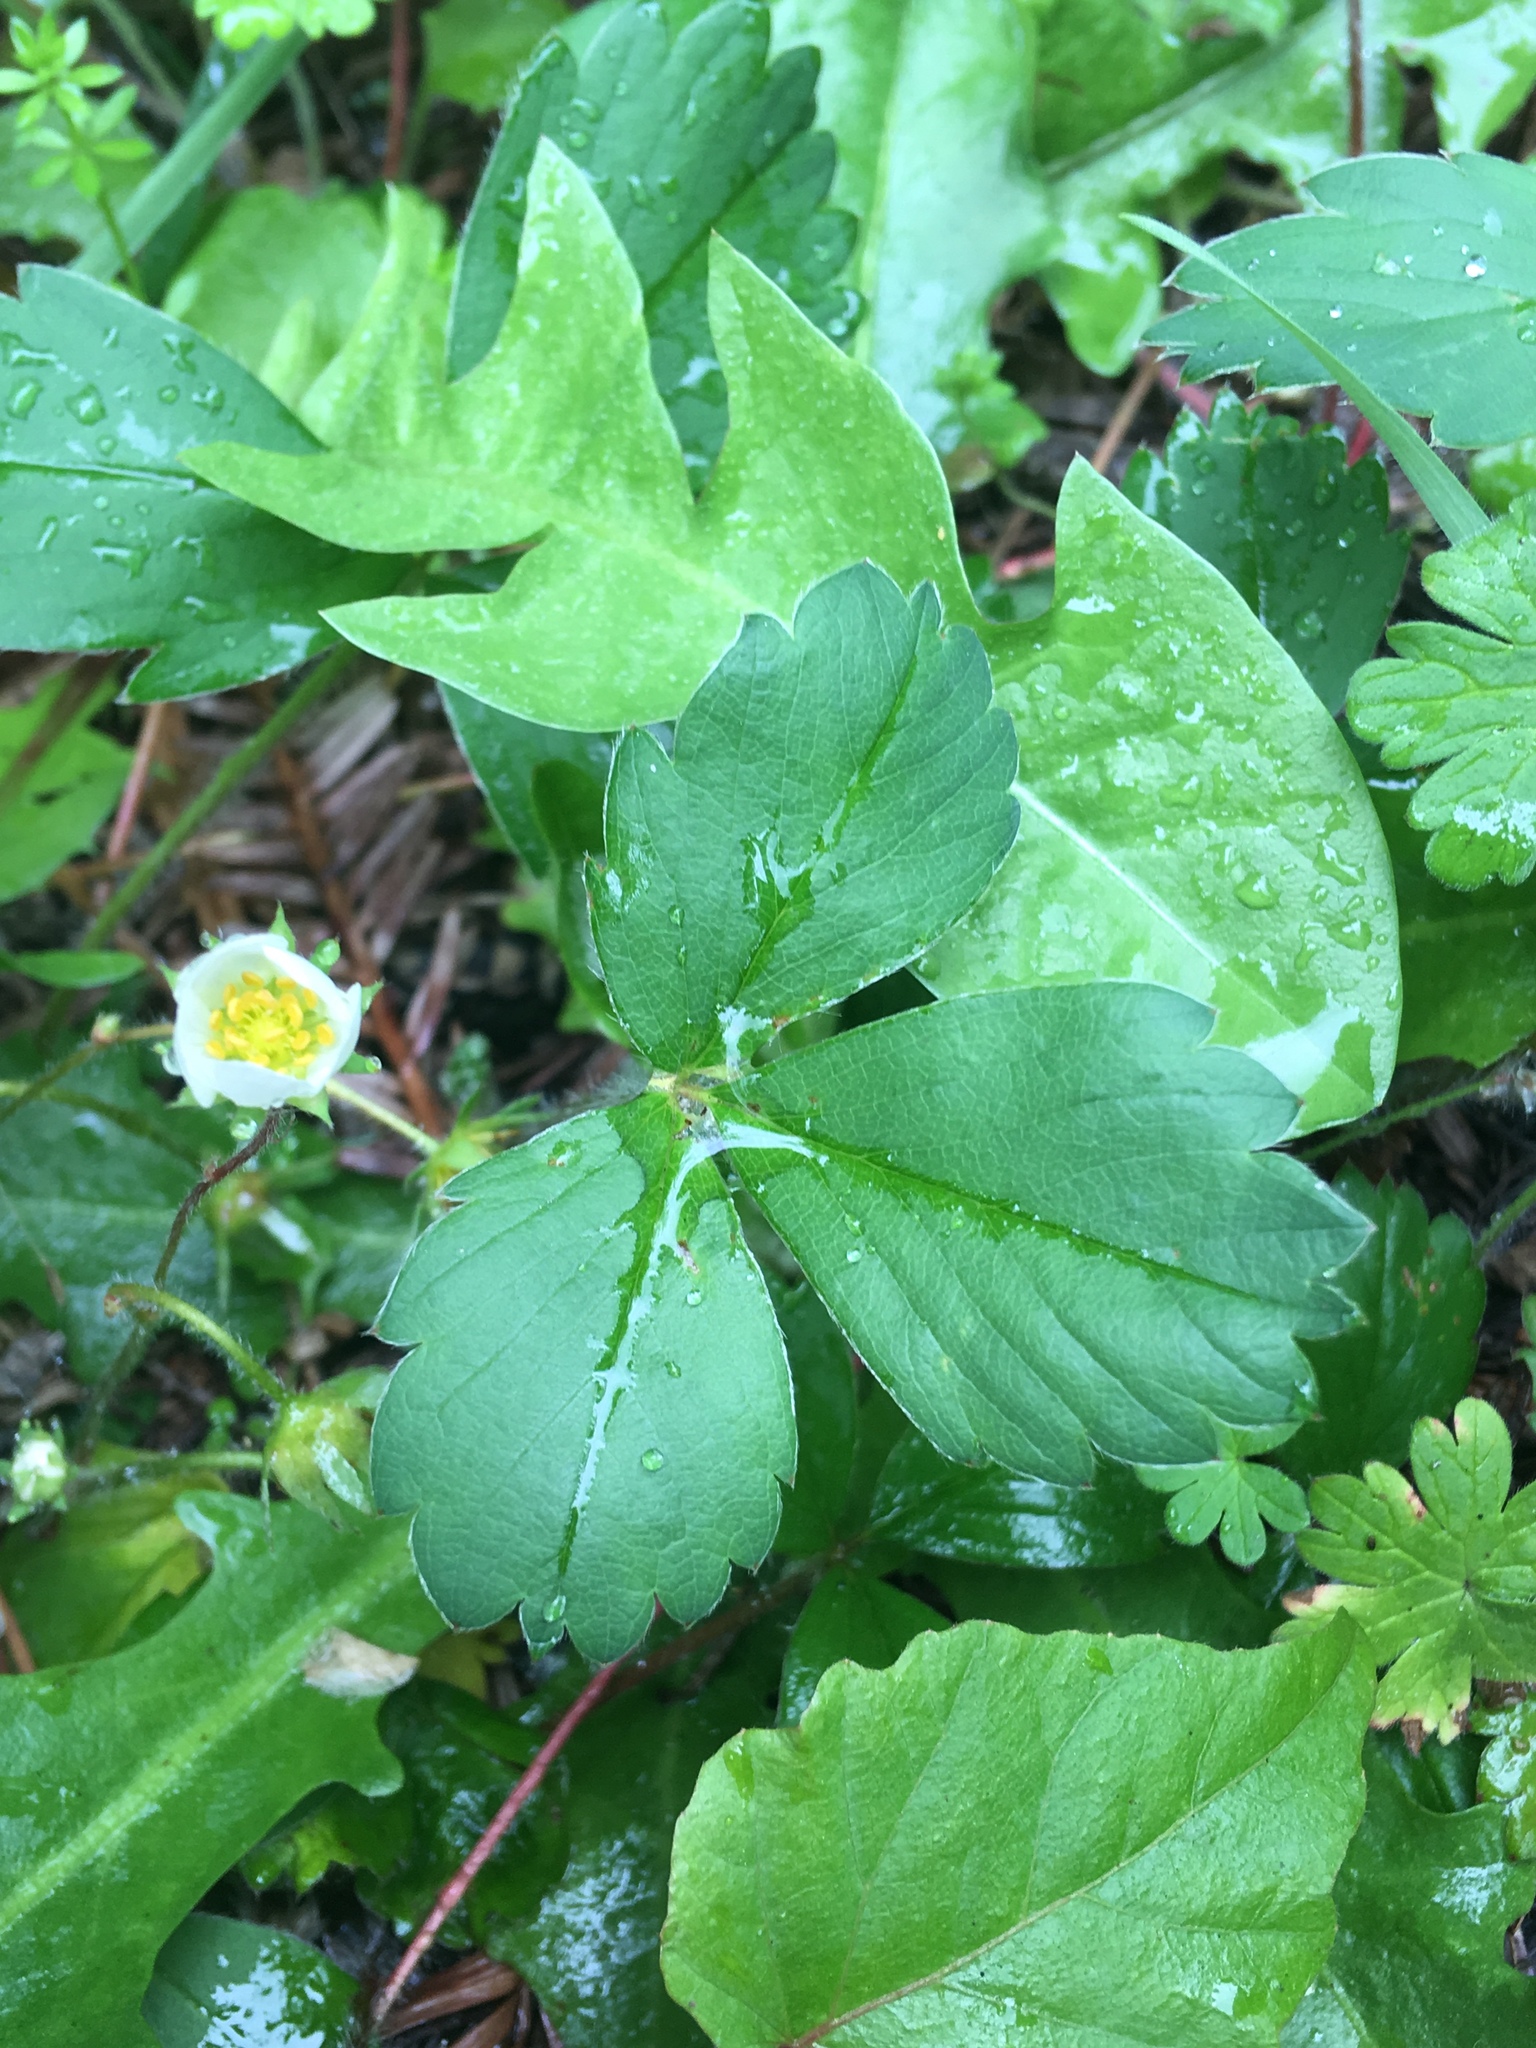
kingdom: Plantae
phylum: Tracheophyta
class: Magnoliopsida
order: Rosales
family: Rosaceae
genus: Fragaria
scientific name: Fragaria virginiana
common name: Thickleaved wild strawberry
